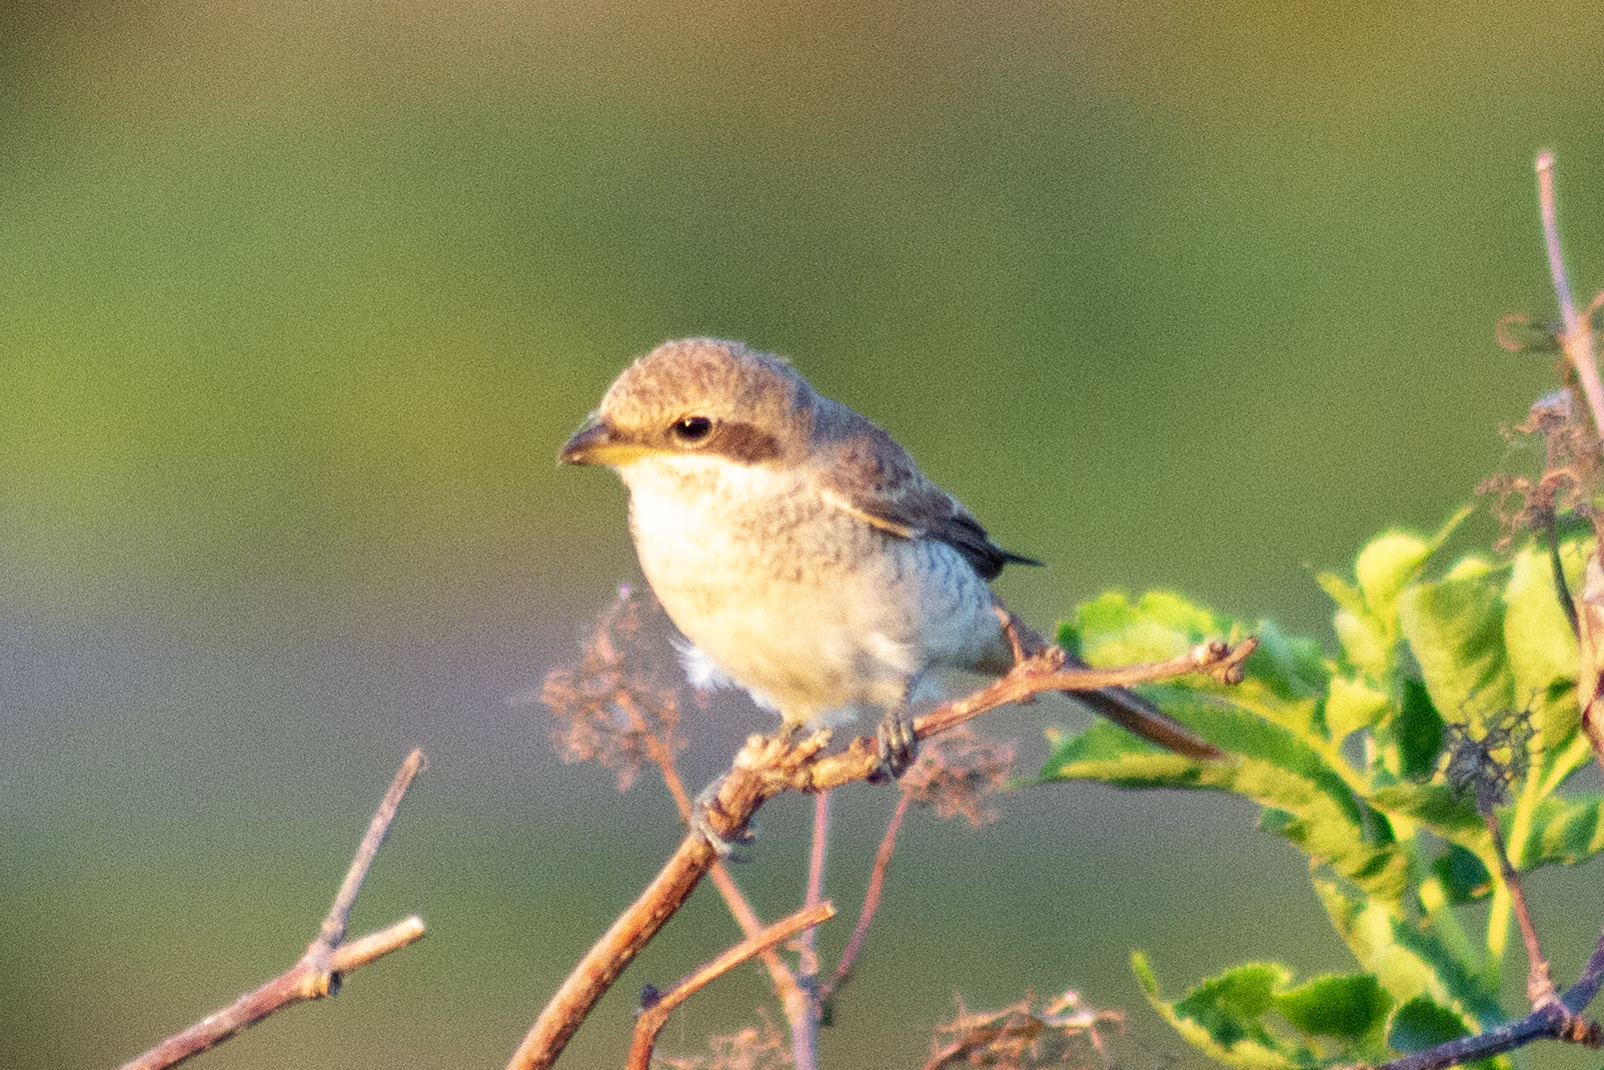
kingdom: Animalia
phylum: Chordata
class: Aves
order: Passeriformes
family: Laniidae
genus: Lanius
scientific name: Lanius collurio
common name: Red-backed shrike
